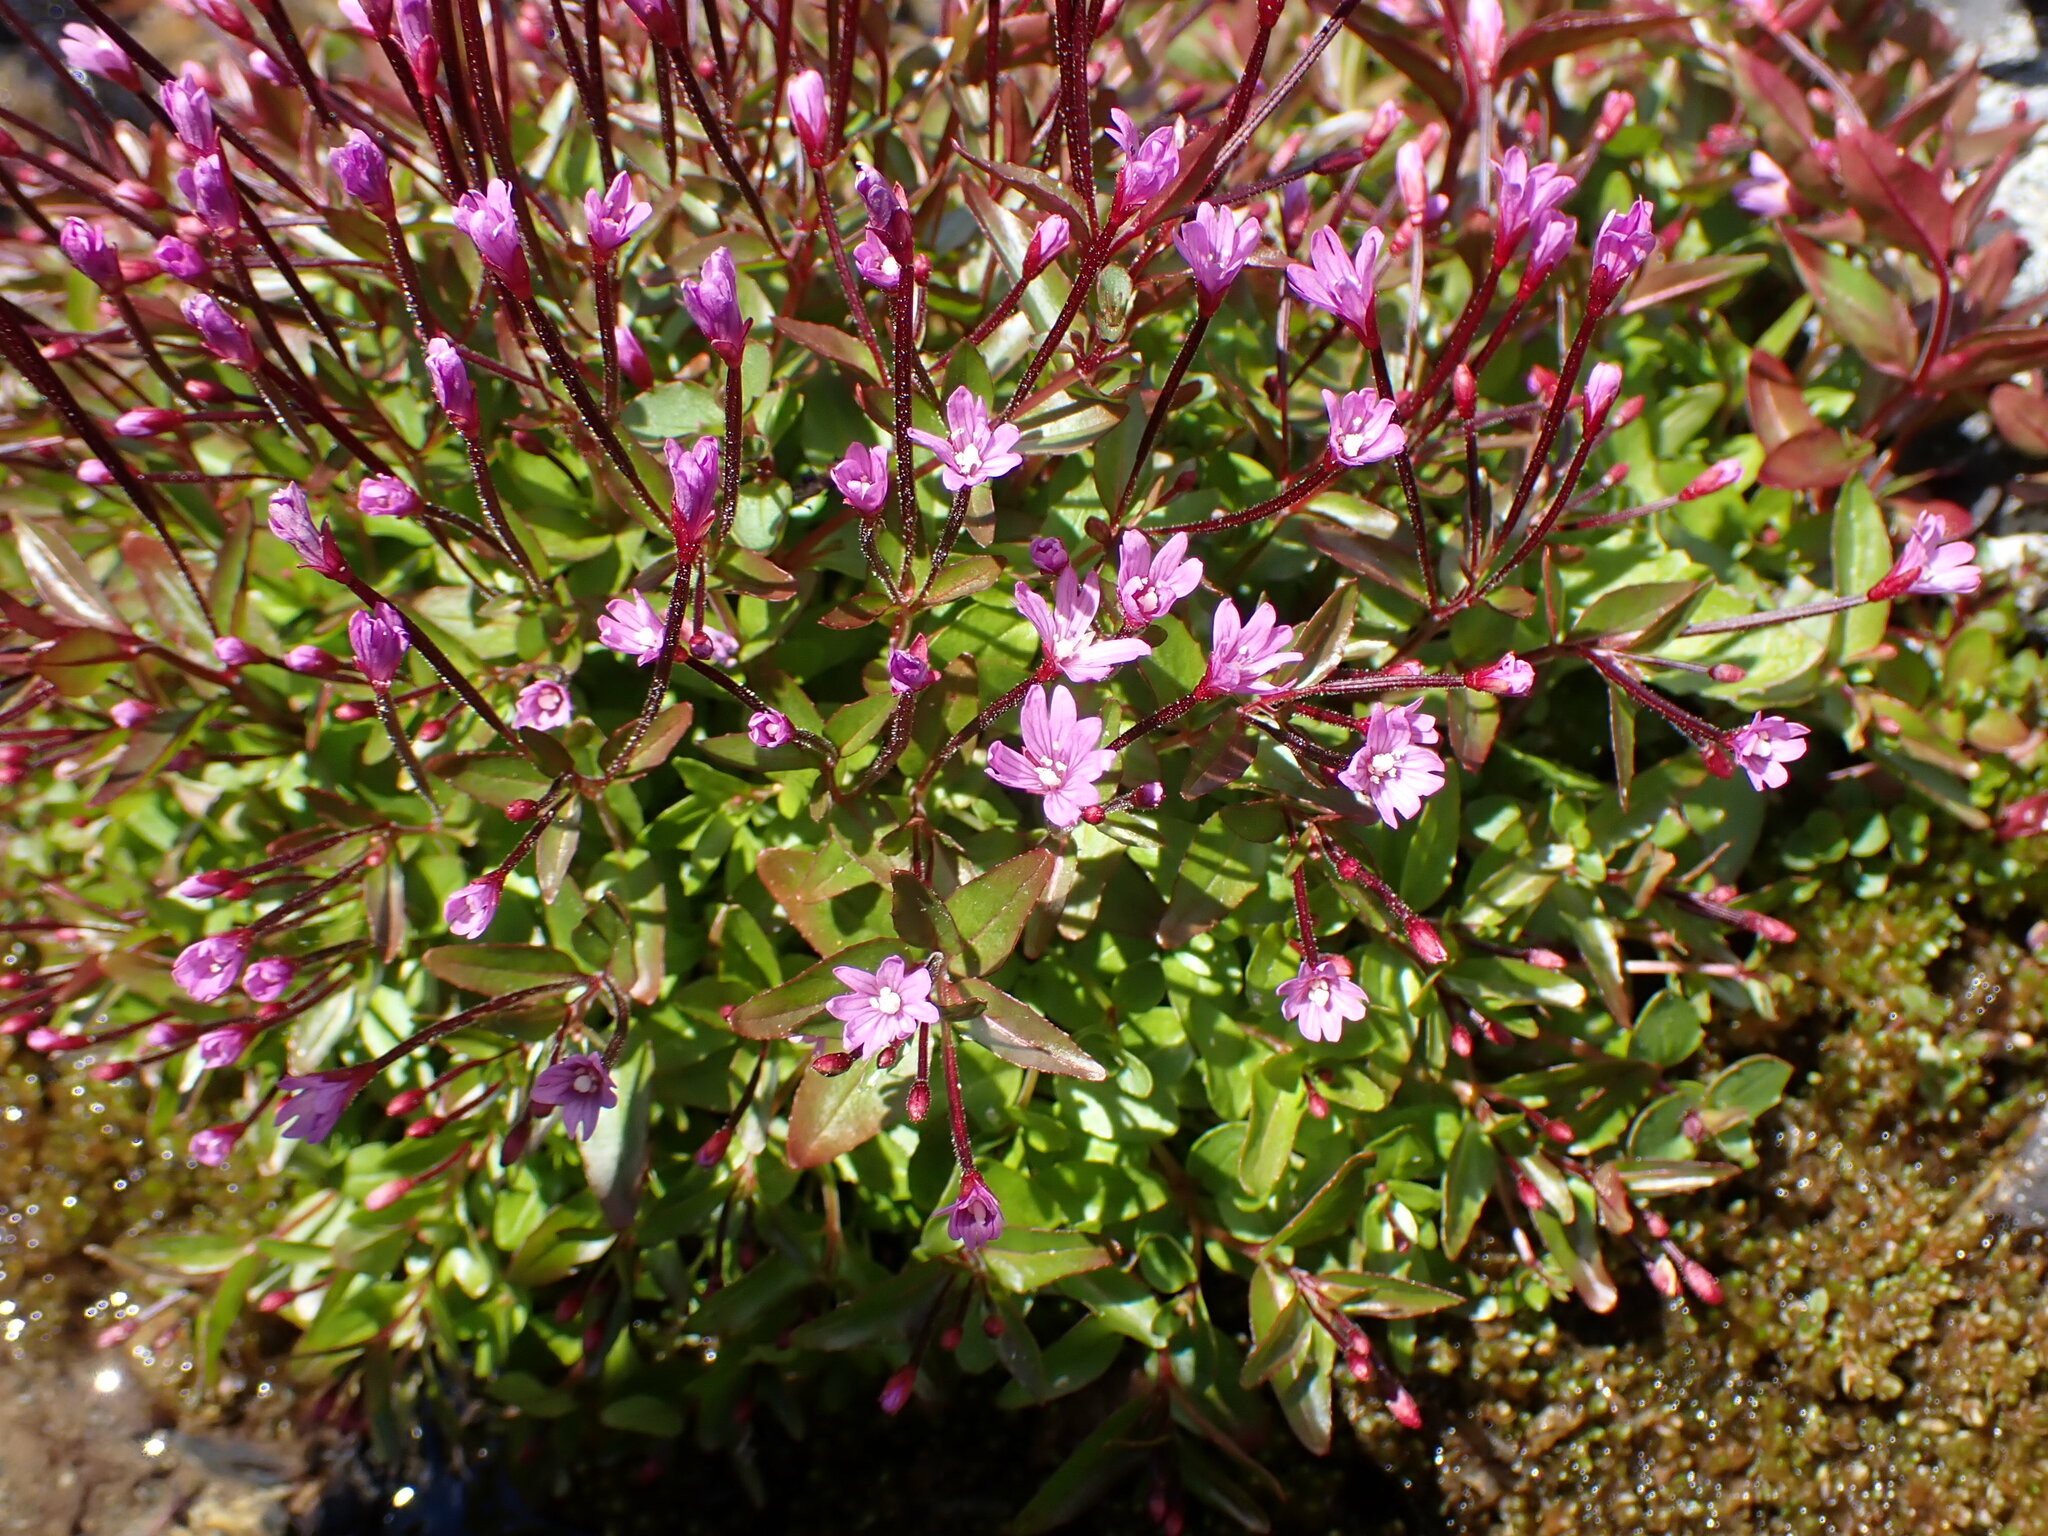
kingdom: Plantae
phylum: Tracheophyta
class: Magnoliopsida
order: Myrtales
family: Onagraceae
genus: Epilobium
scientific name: Epilobium anagallidifolium
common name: Alpine willowherb
